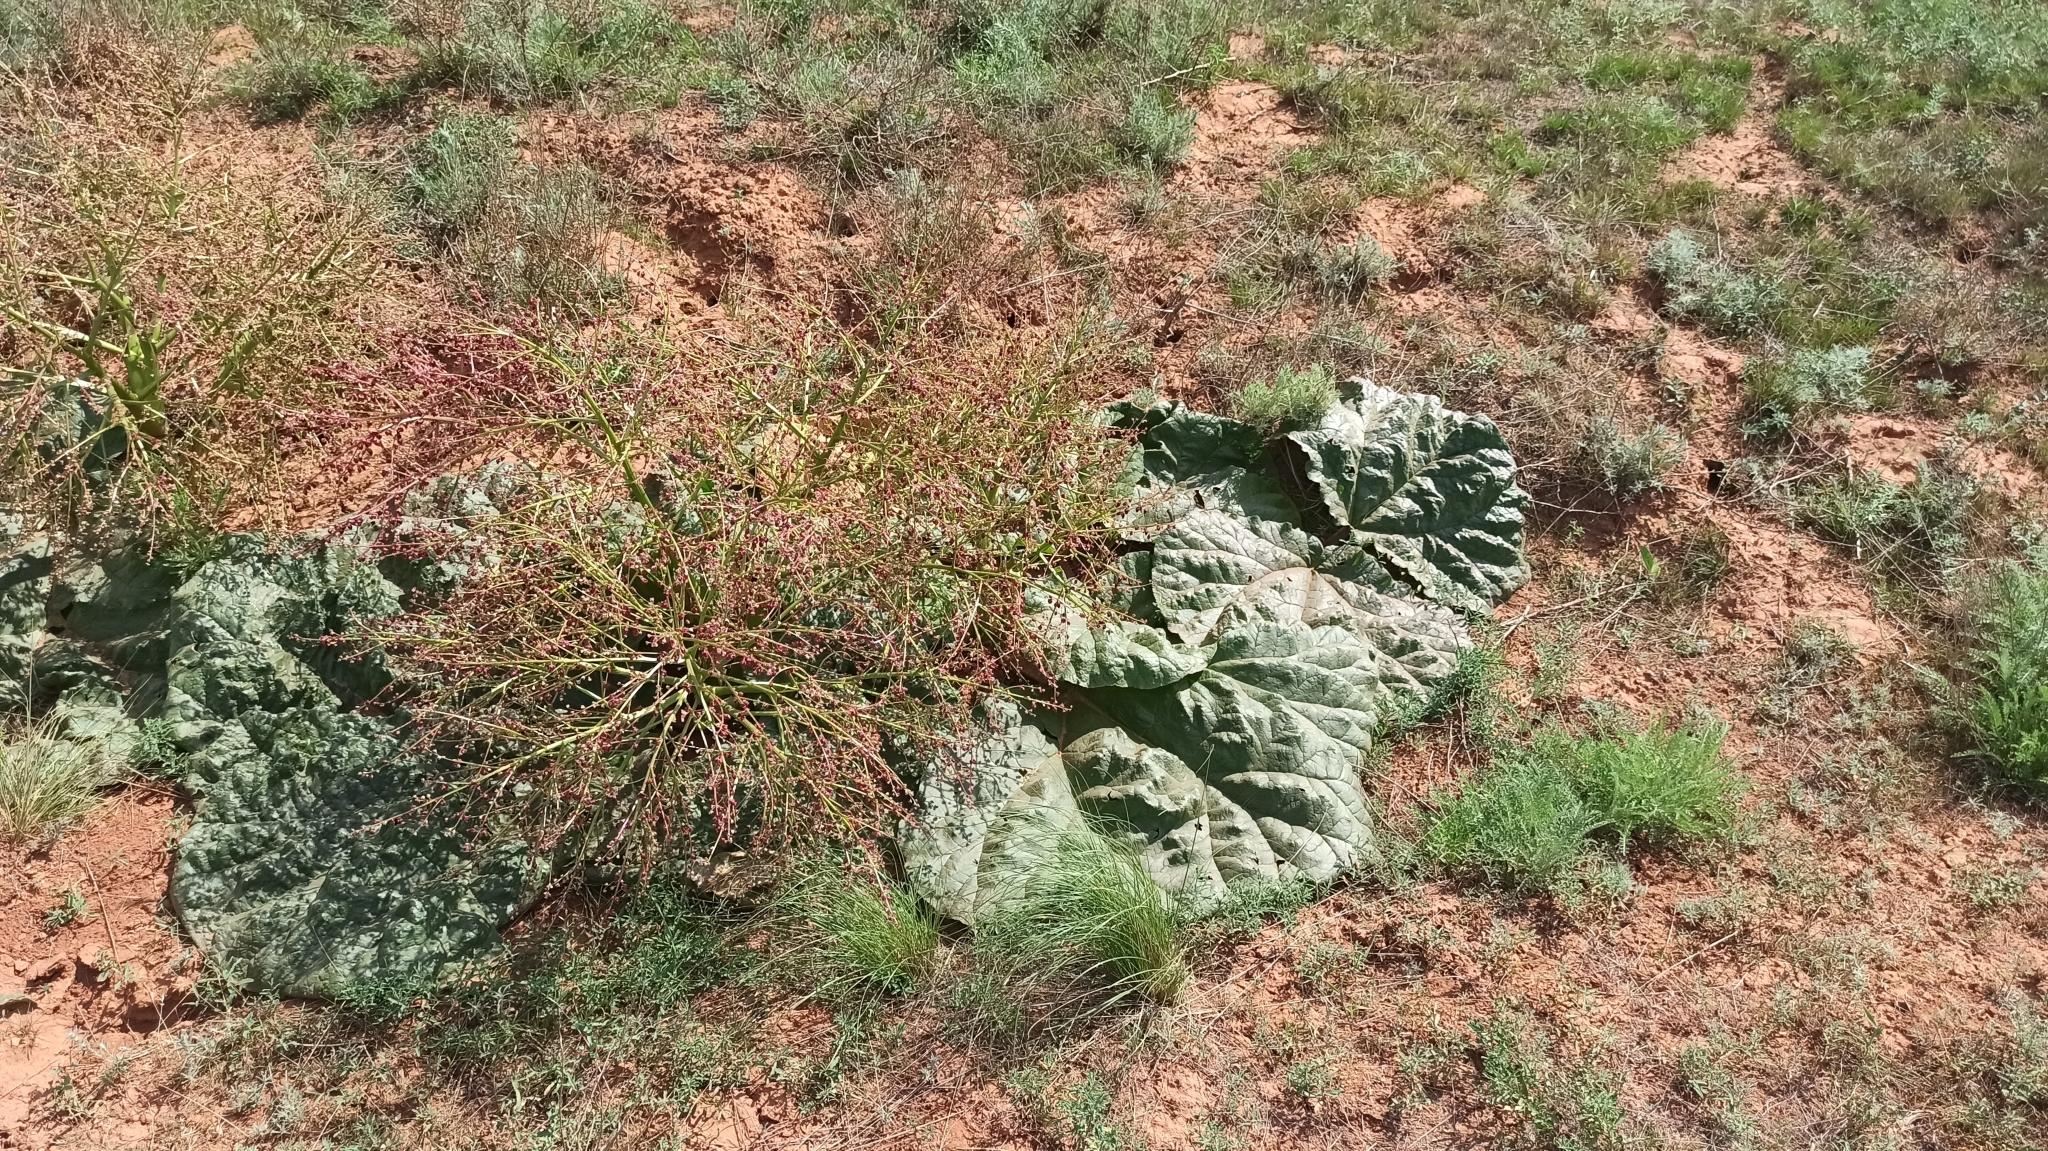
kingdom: Plantae
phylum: Tracheophyta
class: Magnoliopsida
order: Caryophyllales
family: Polygonaceae
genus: Rheum
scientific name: Rheum tataricum
